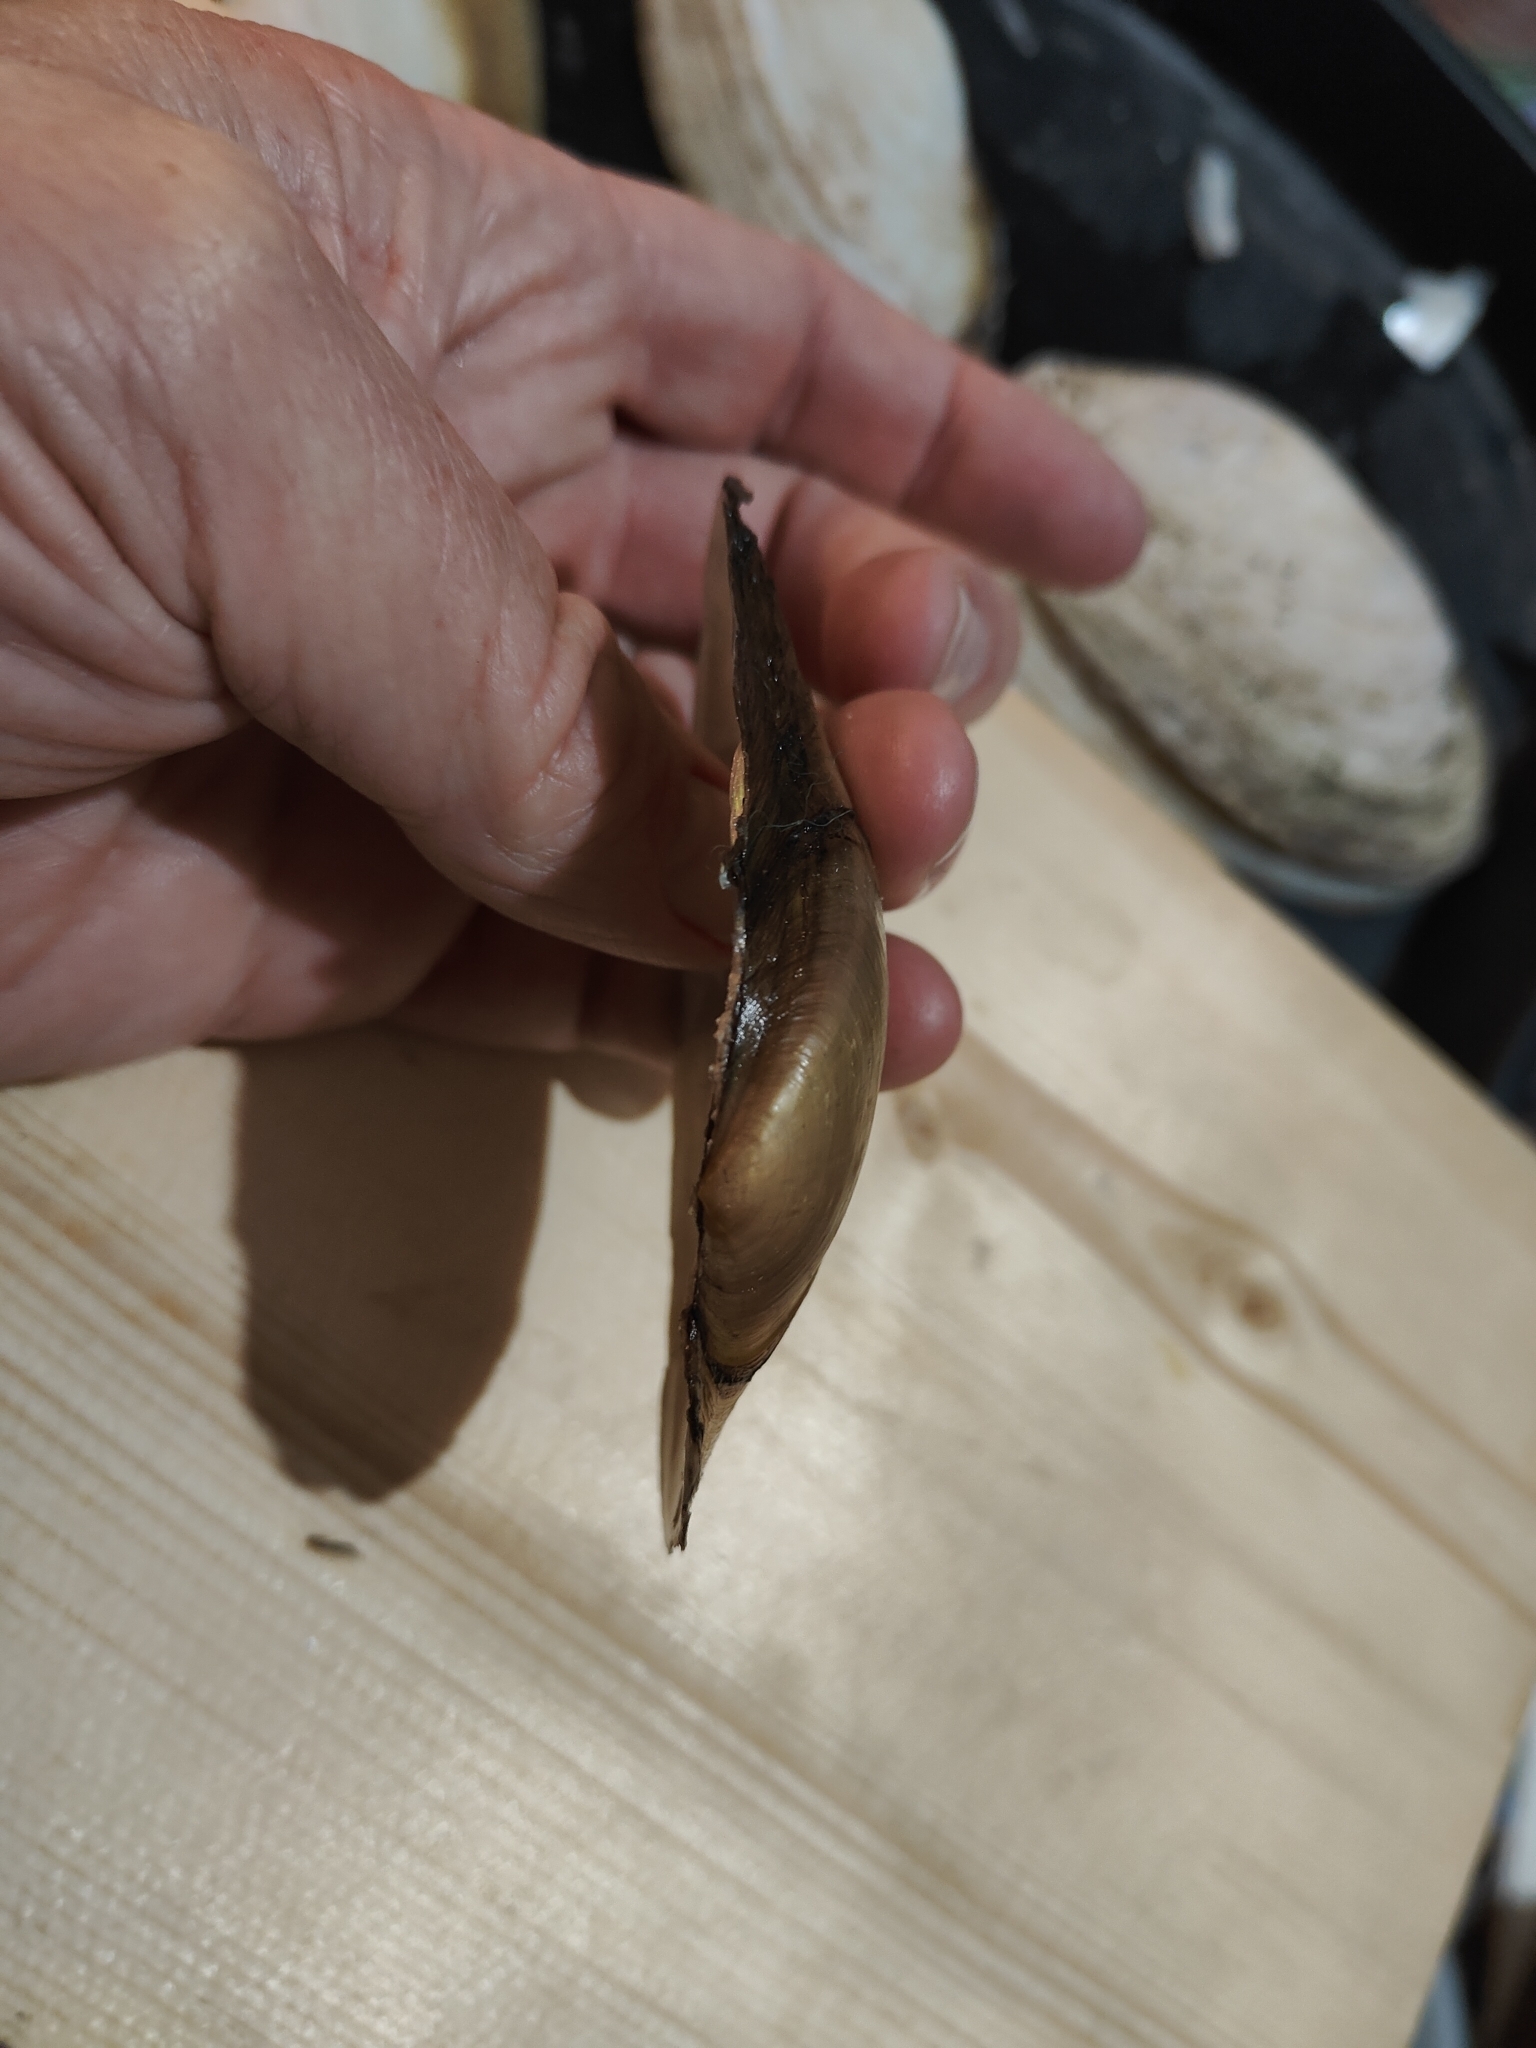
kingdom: Animalia
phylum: Mollusca
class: Bivalvia
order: Unionida
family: Unionidae
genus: Potamilus
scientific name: Potamilus fragilis
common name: Fragile papershell
